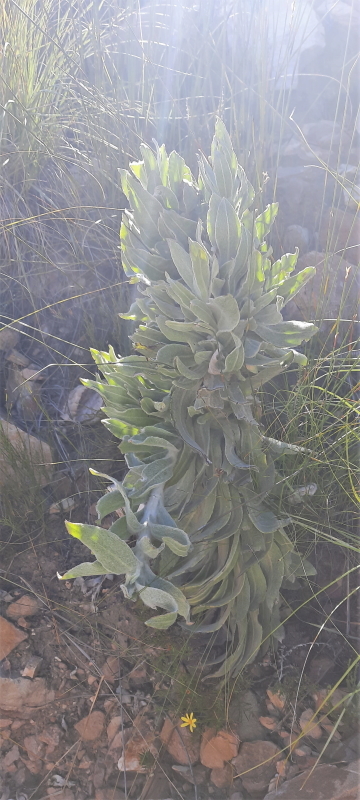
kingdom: Plantae
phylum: Tracheophyta
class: Magnoliopsida
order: Asterales
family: Asteraceae
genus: Syncarpha
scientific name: Syncarpha milleflora
